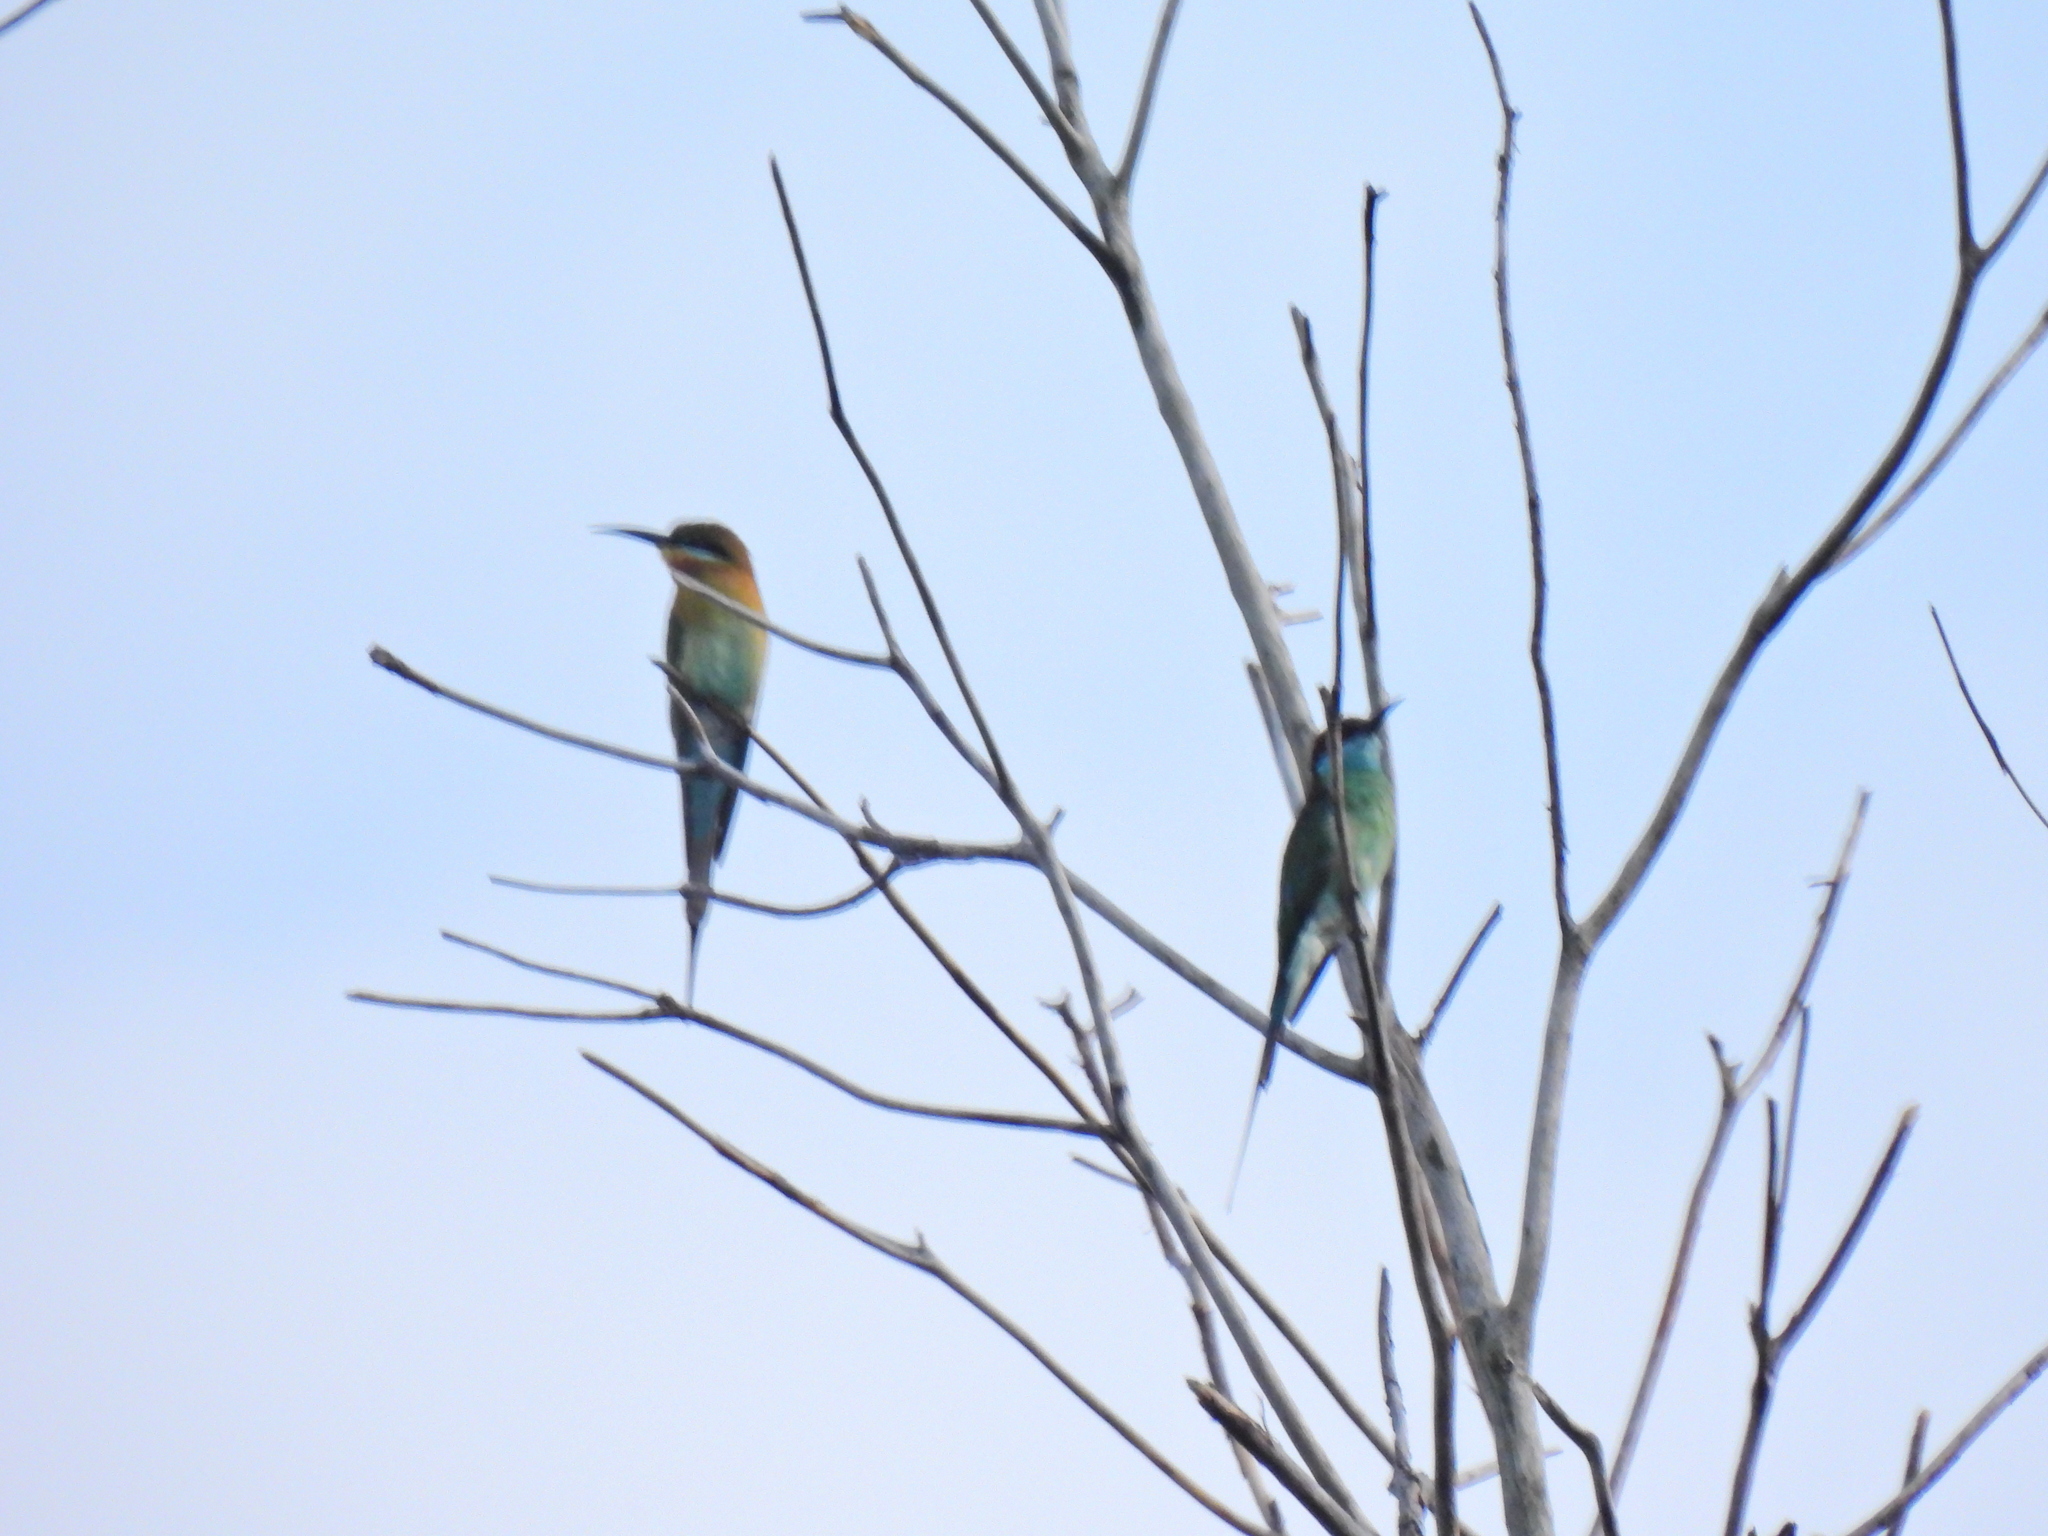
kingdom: Animalia
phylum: Chordata
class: Aves
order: Coraciiformes
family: Meropidae
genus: Merops
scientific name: Merops viridis
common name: Blue-throated bee-eater
